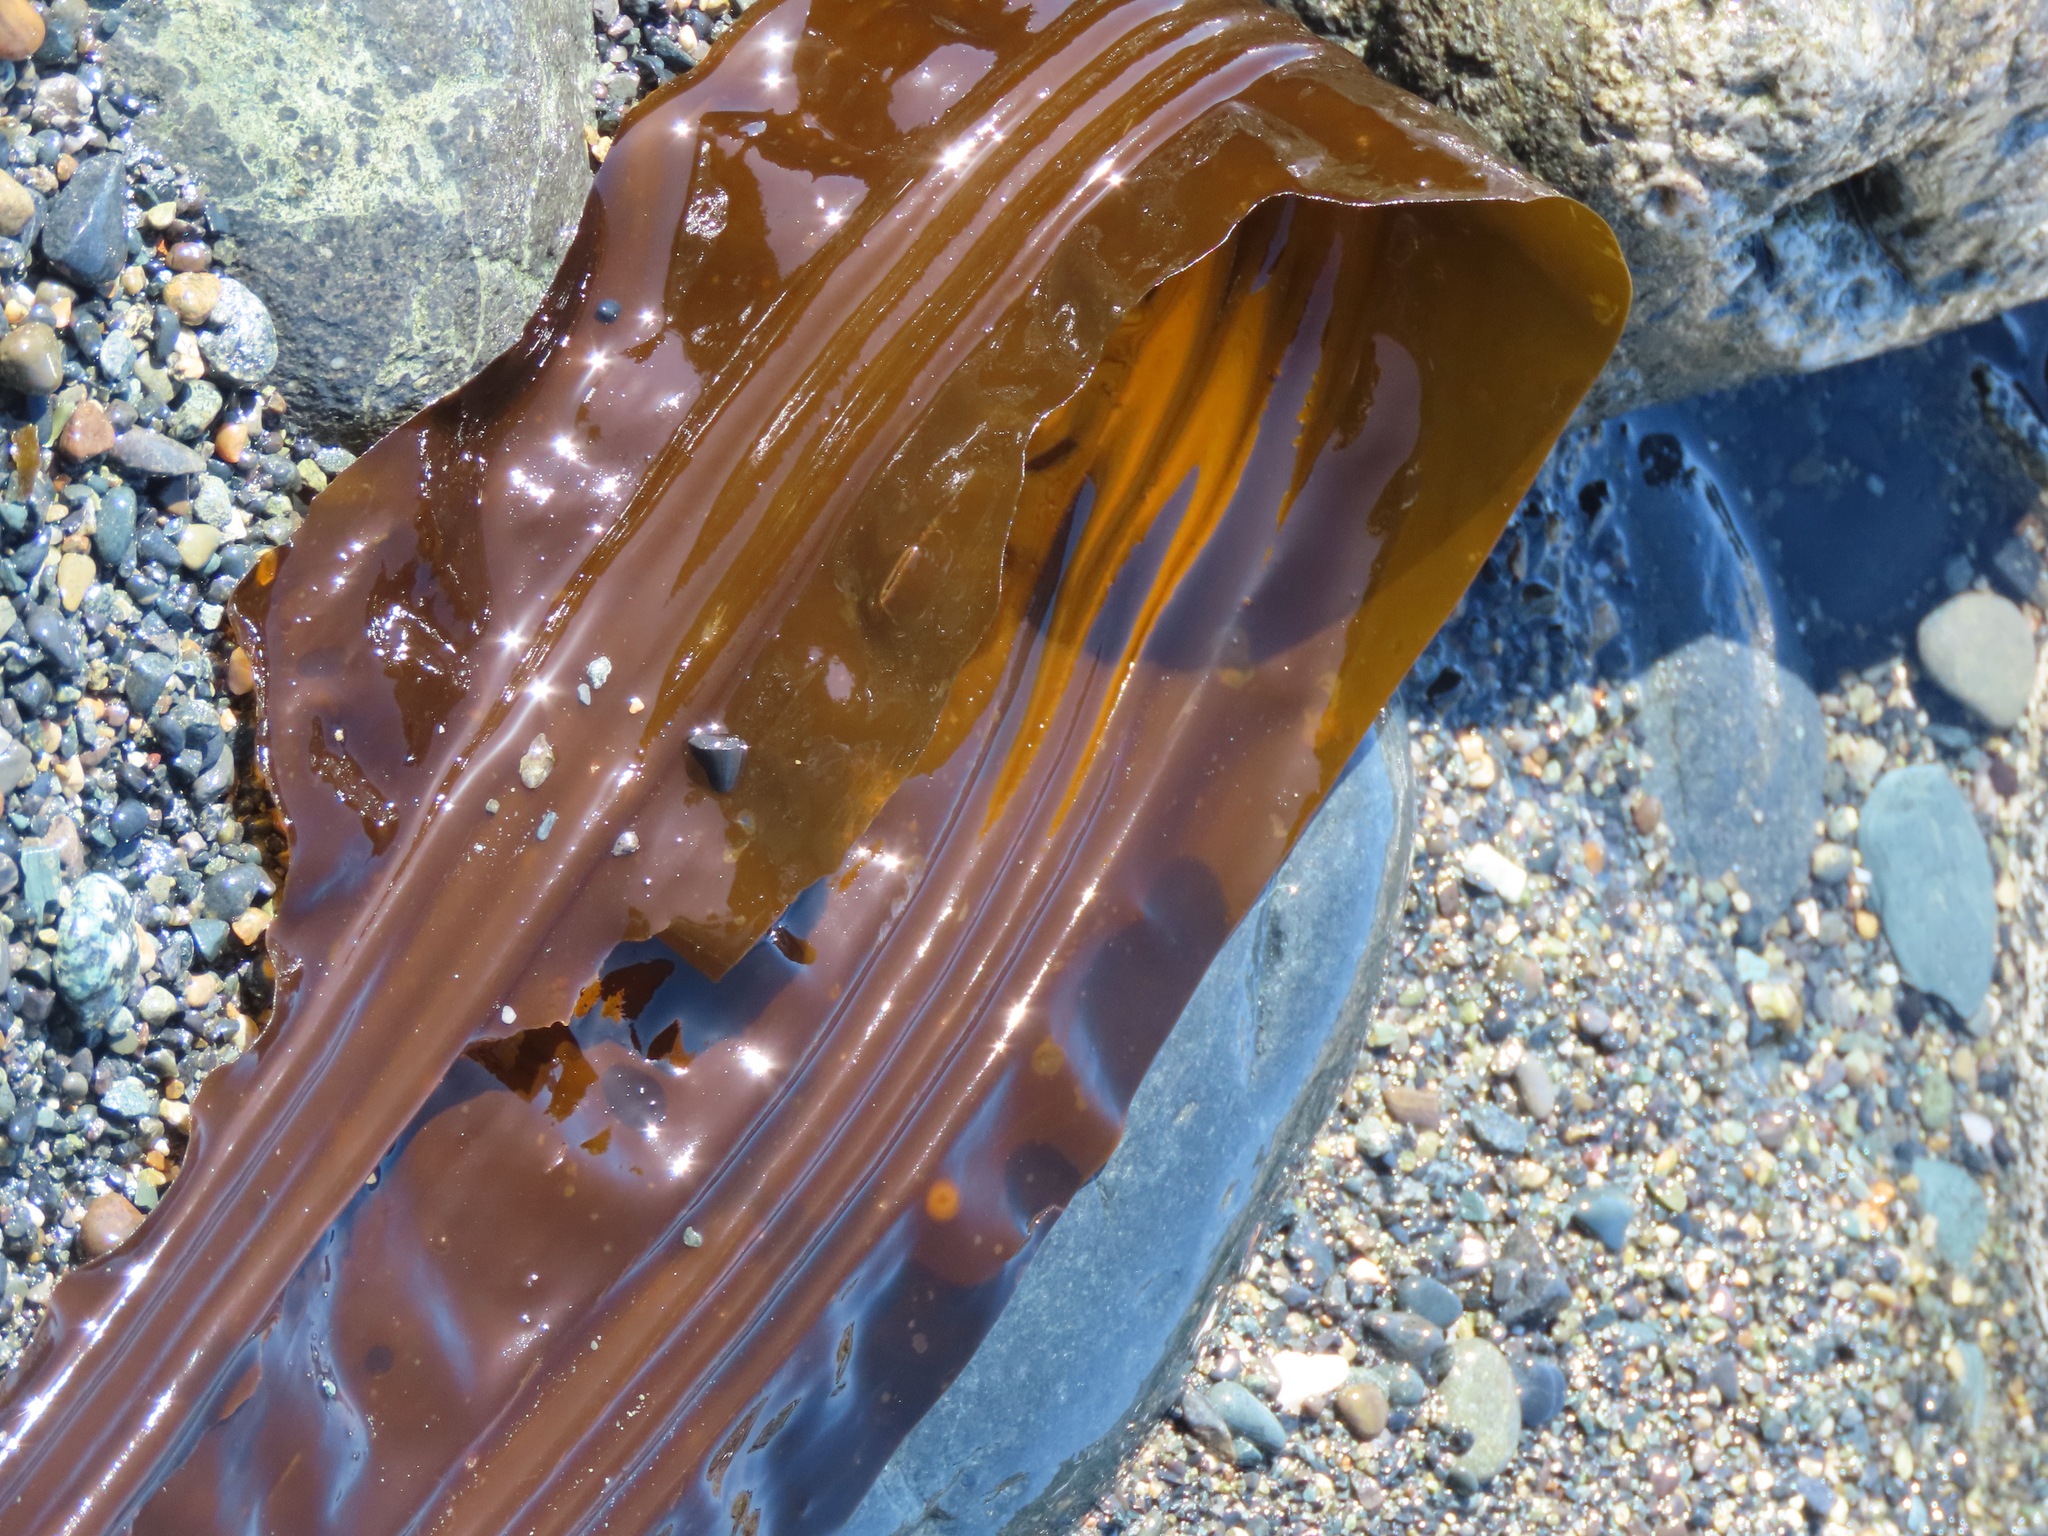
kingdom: Chromista
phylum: Ochrophyta
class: Phaeophyceae
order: Laminariales
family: Laminariaceae
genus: Cymathaere
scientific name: Cymathaere triplicata
